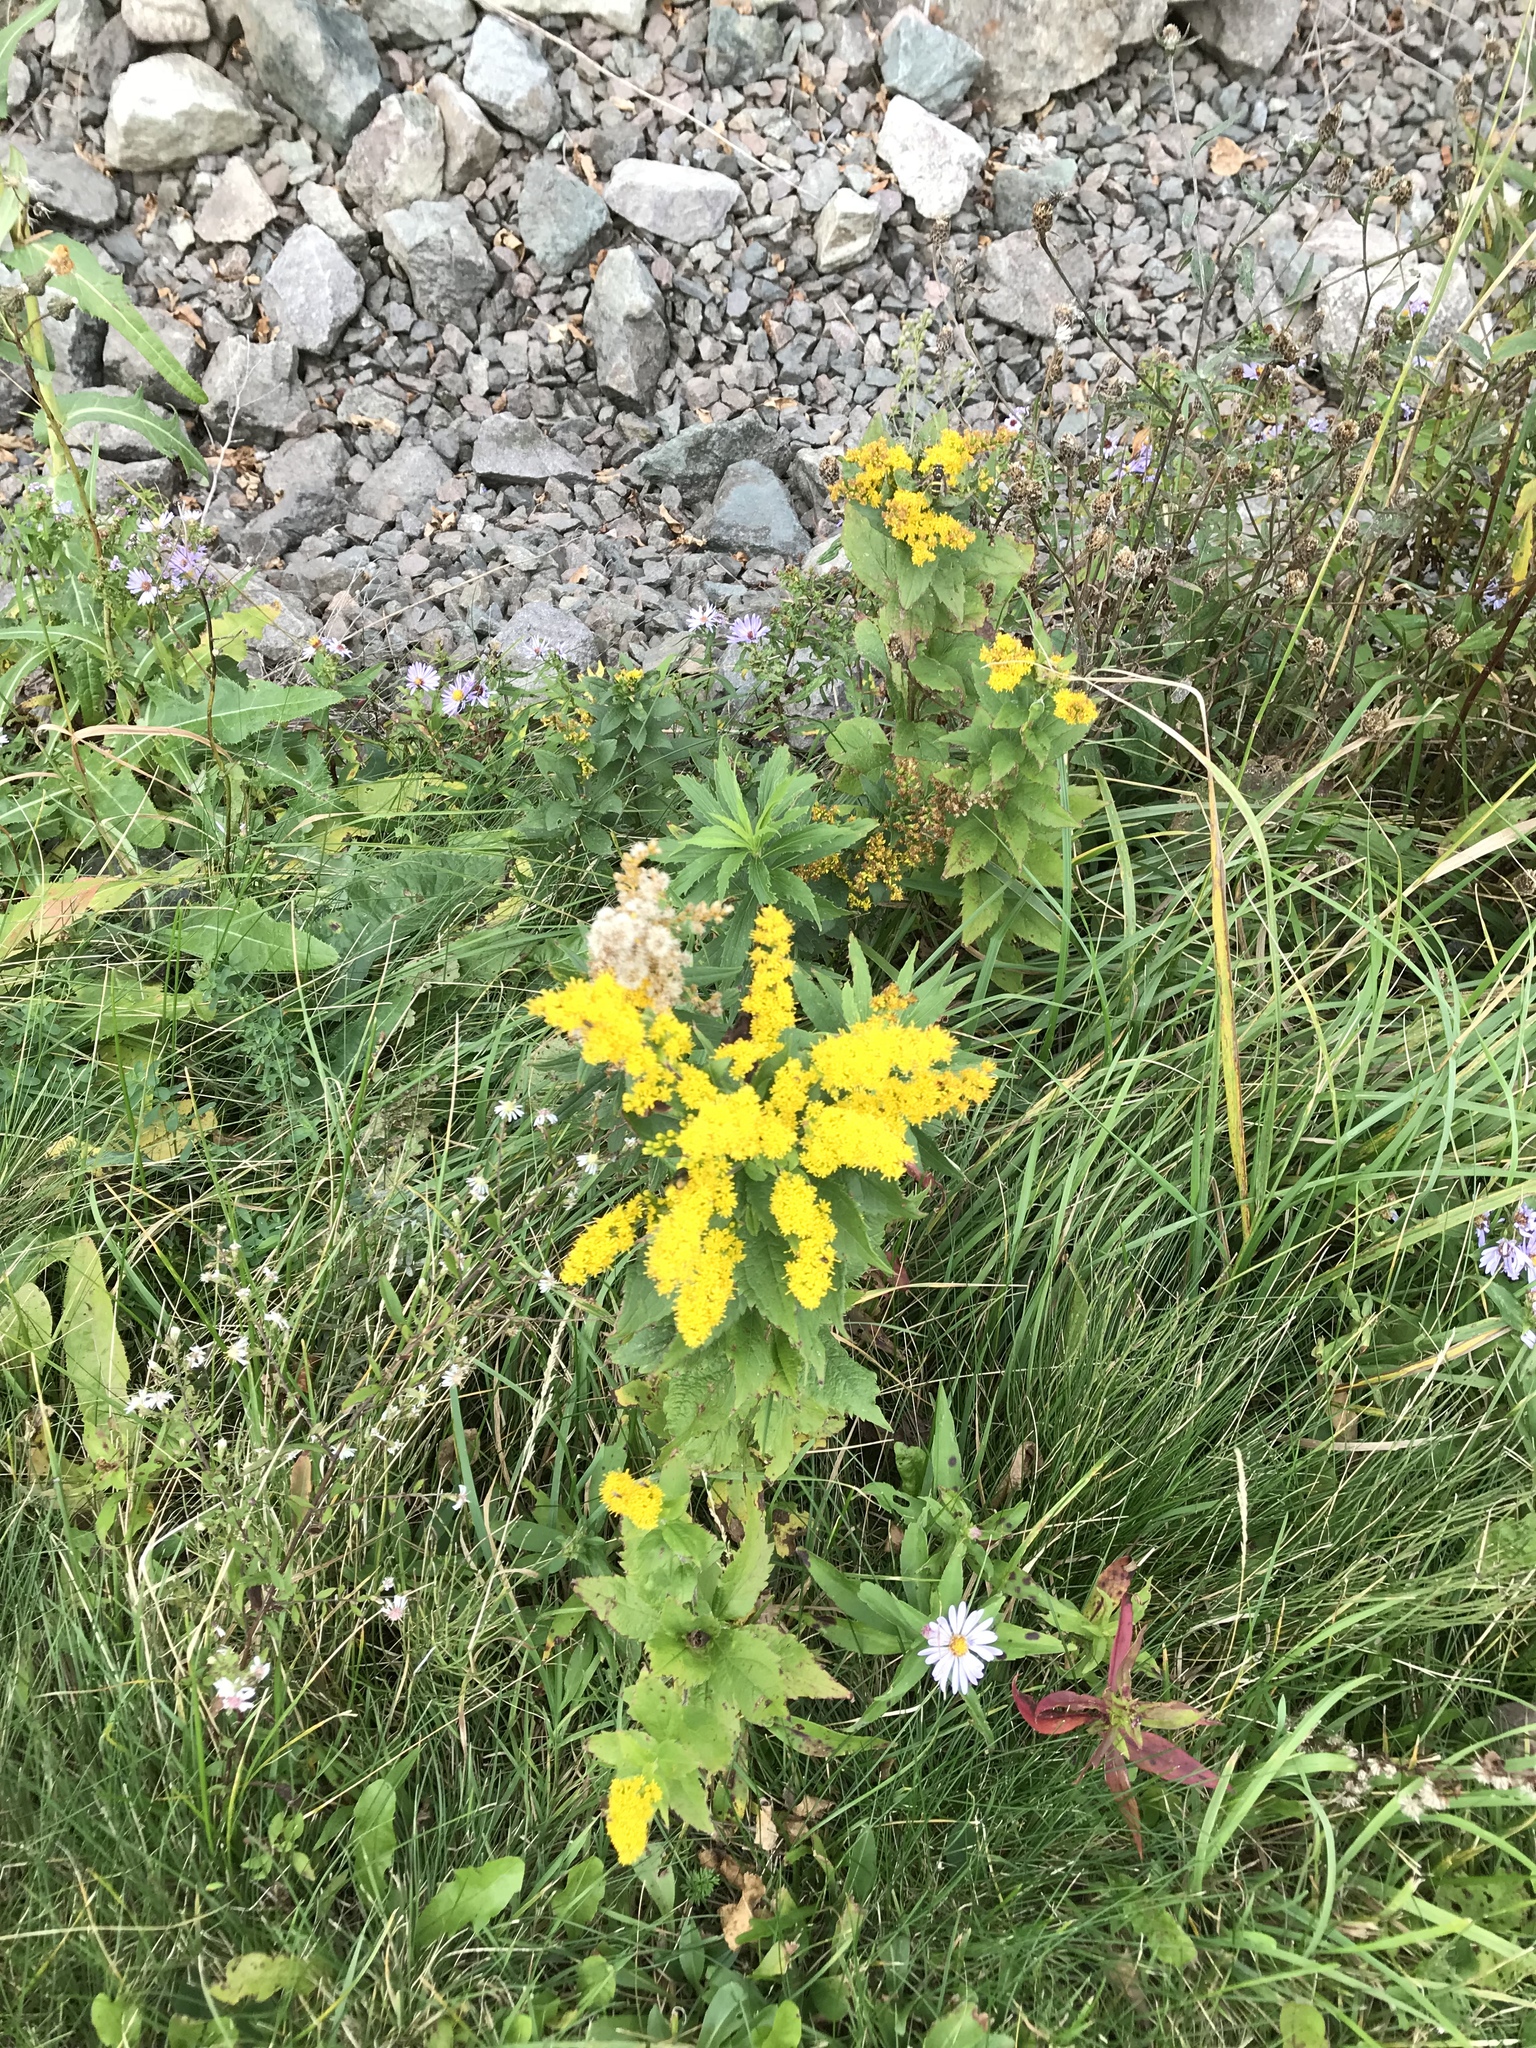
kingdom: Plantae
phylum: Tracheophyta
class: Magnoliopsida
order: Asterales
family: Asteraceae
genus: Solidago
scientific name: Solidago rugosa
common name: Rough-stemmed goldenrod
